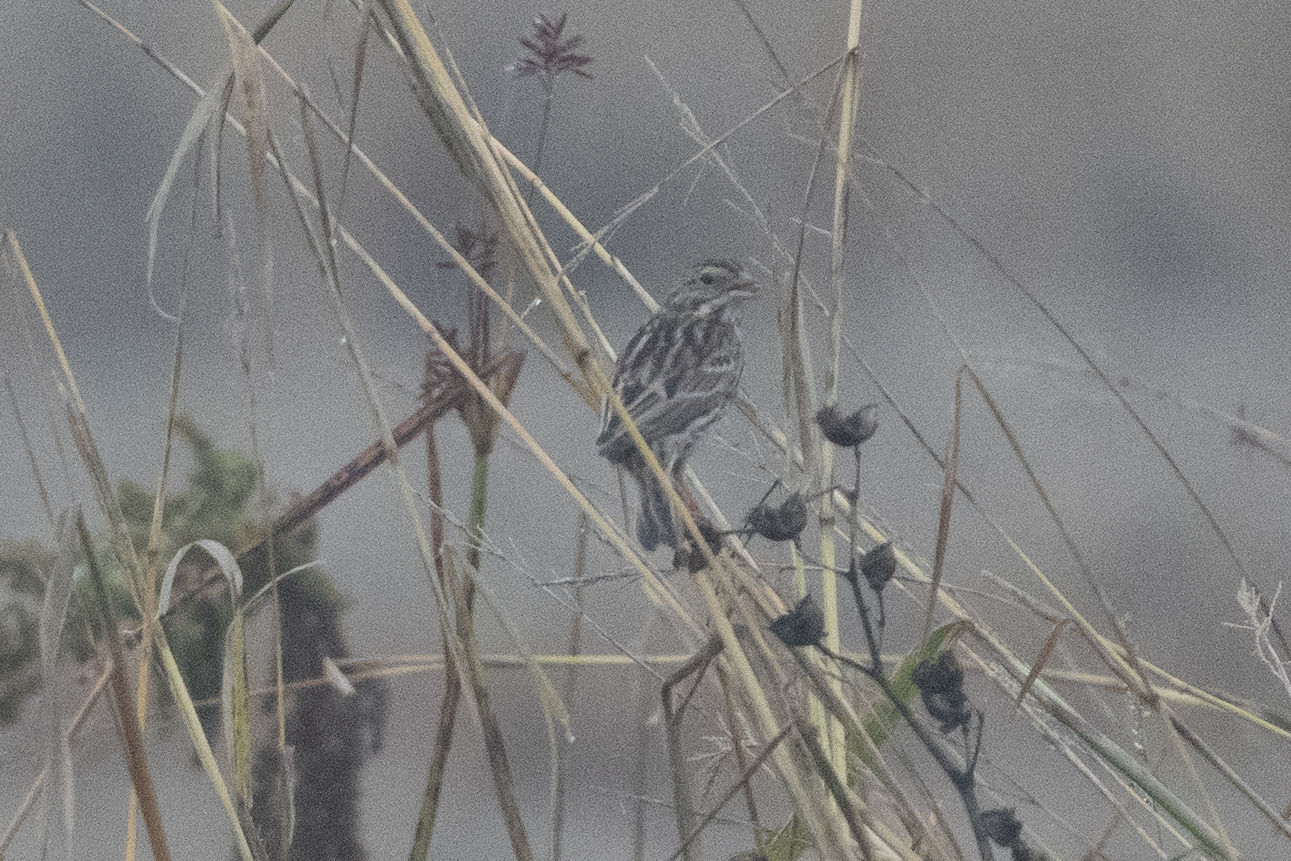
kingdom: Animalia
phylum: Chordata
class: Aves
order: Passeriformes
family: Passerellidae
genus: Passerculus
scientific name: Passerculus sandwichensis
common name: Savannah sparrow
